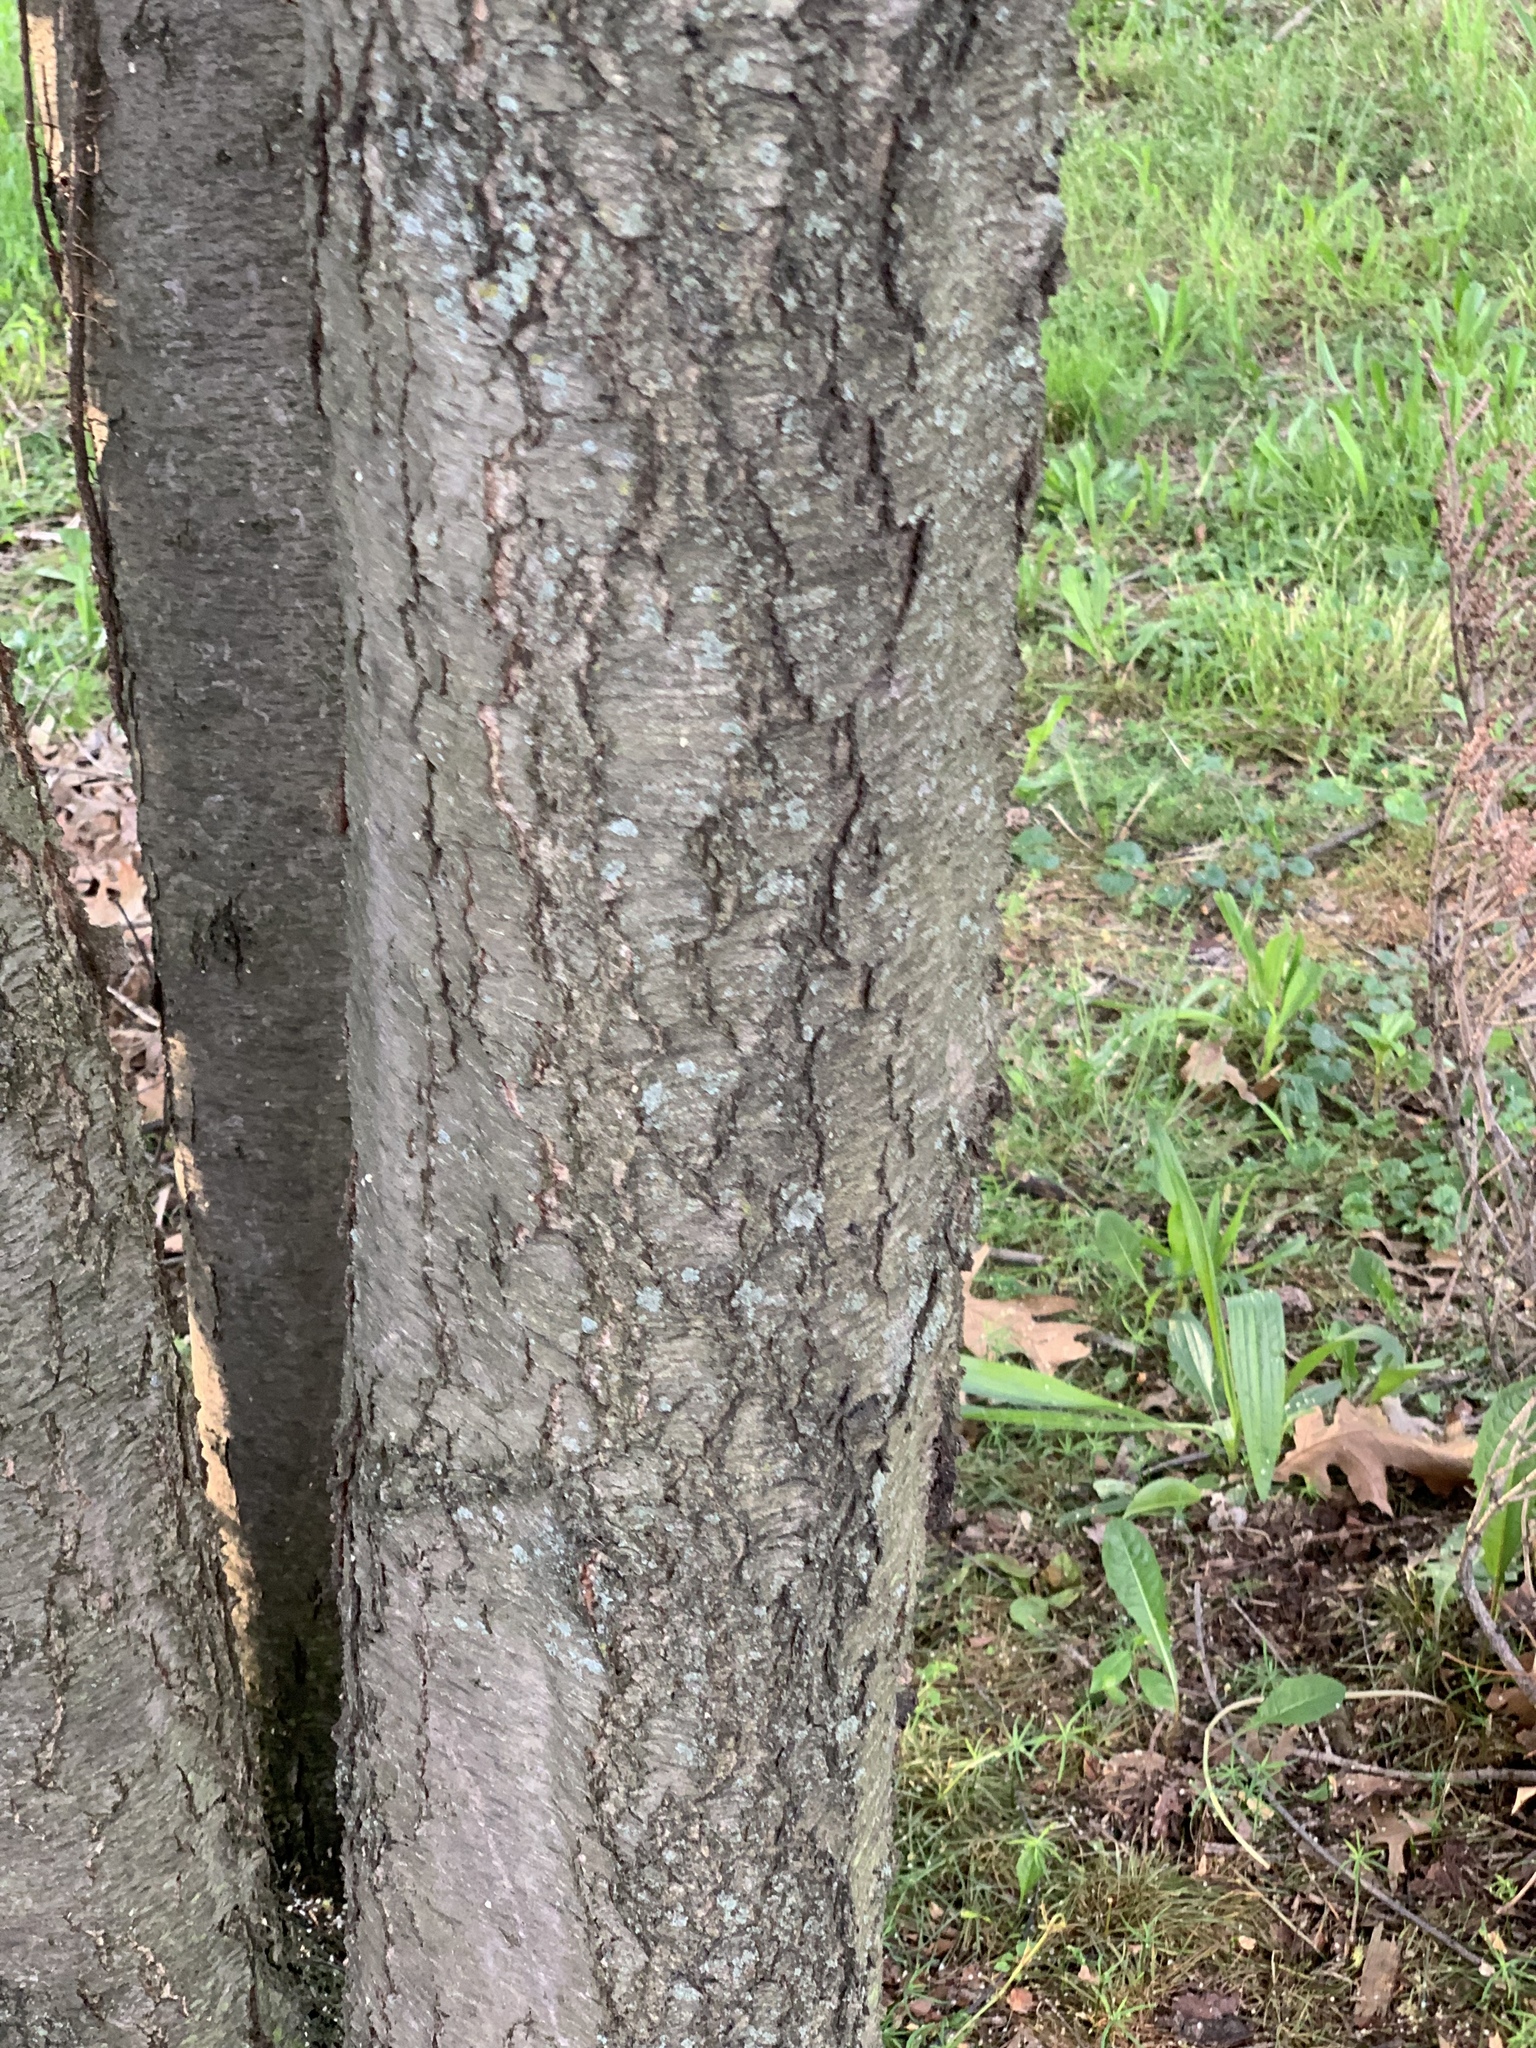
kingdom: Plantae
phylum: Tracheophyta
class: Magnoliopsida
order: Rosales
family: Rosaceae
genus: Prunus
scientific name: Prunus padus
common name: Bird cherry
